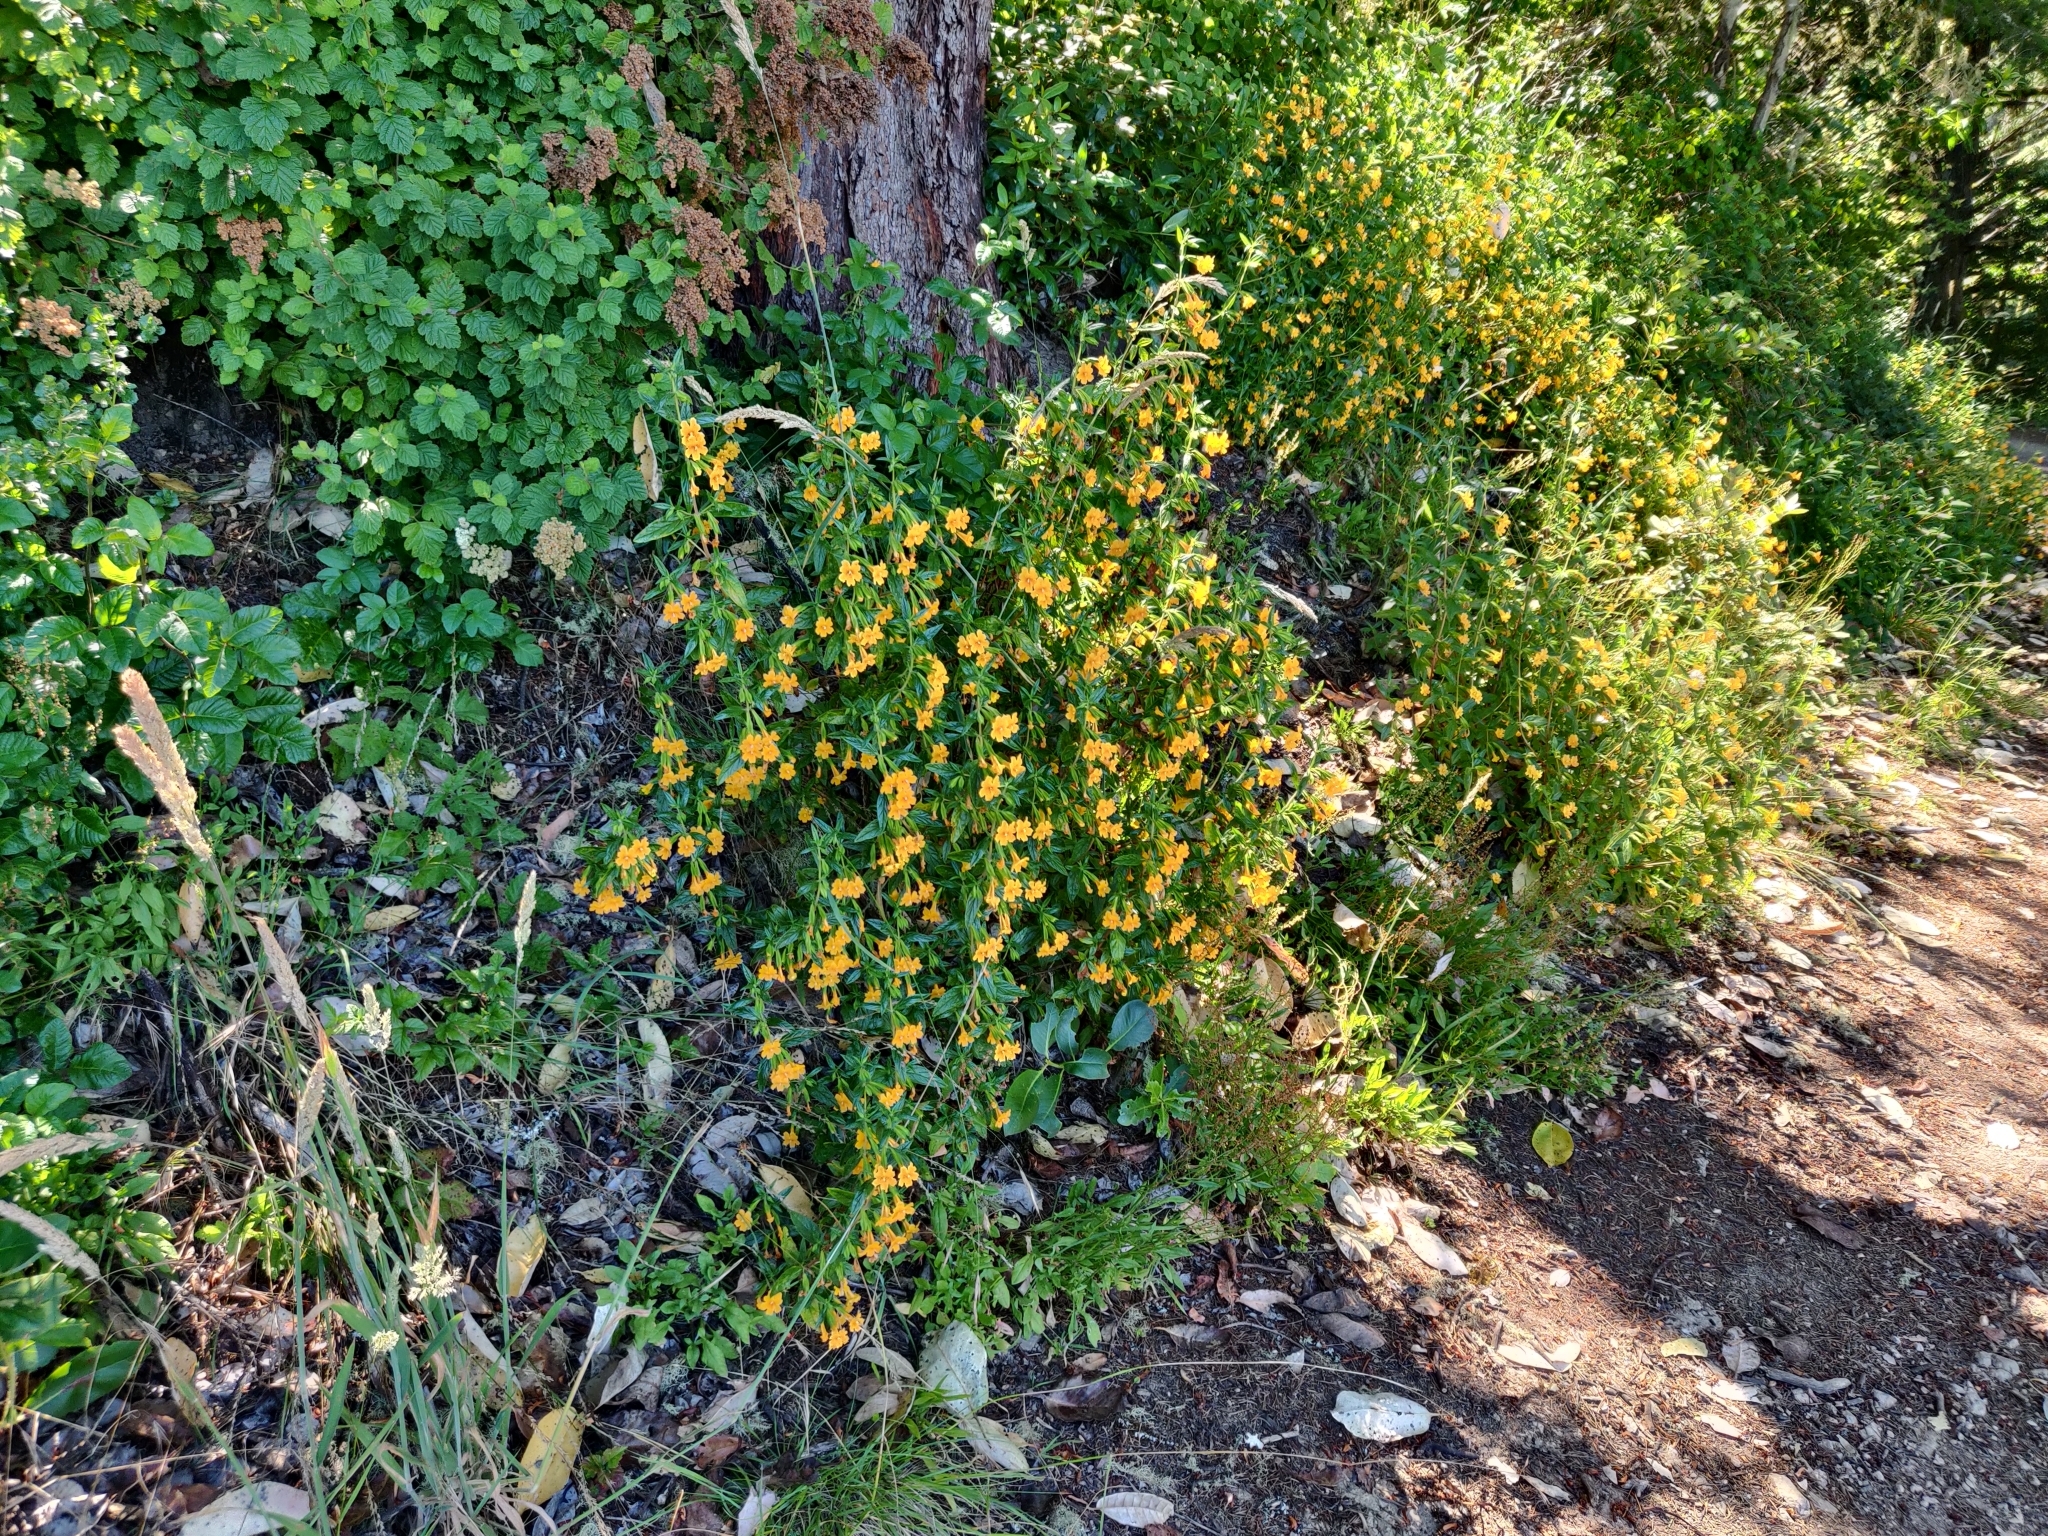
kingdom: Plantae
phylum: Tracheophyta
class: Magnoliopsida
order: Lamiales
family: Phrymaceae
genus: Diplacus
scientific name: Diplacus aurantiacus
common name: Bush monkey-flower
